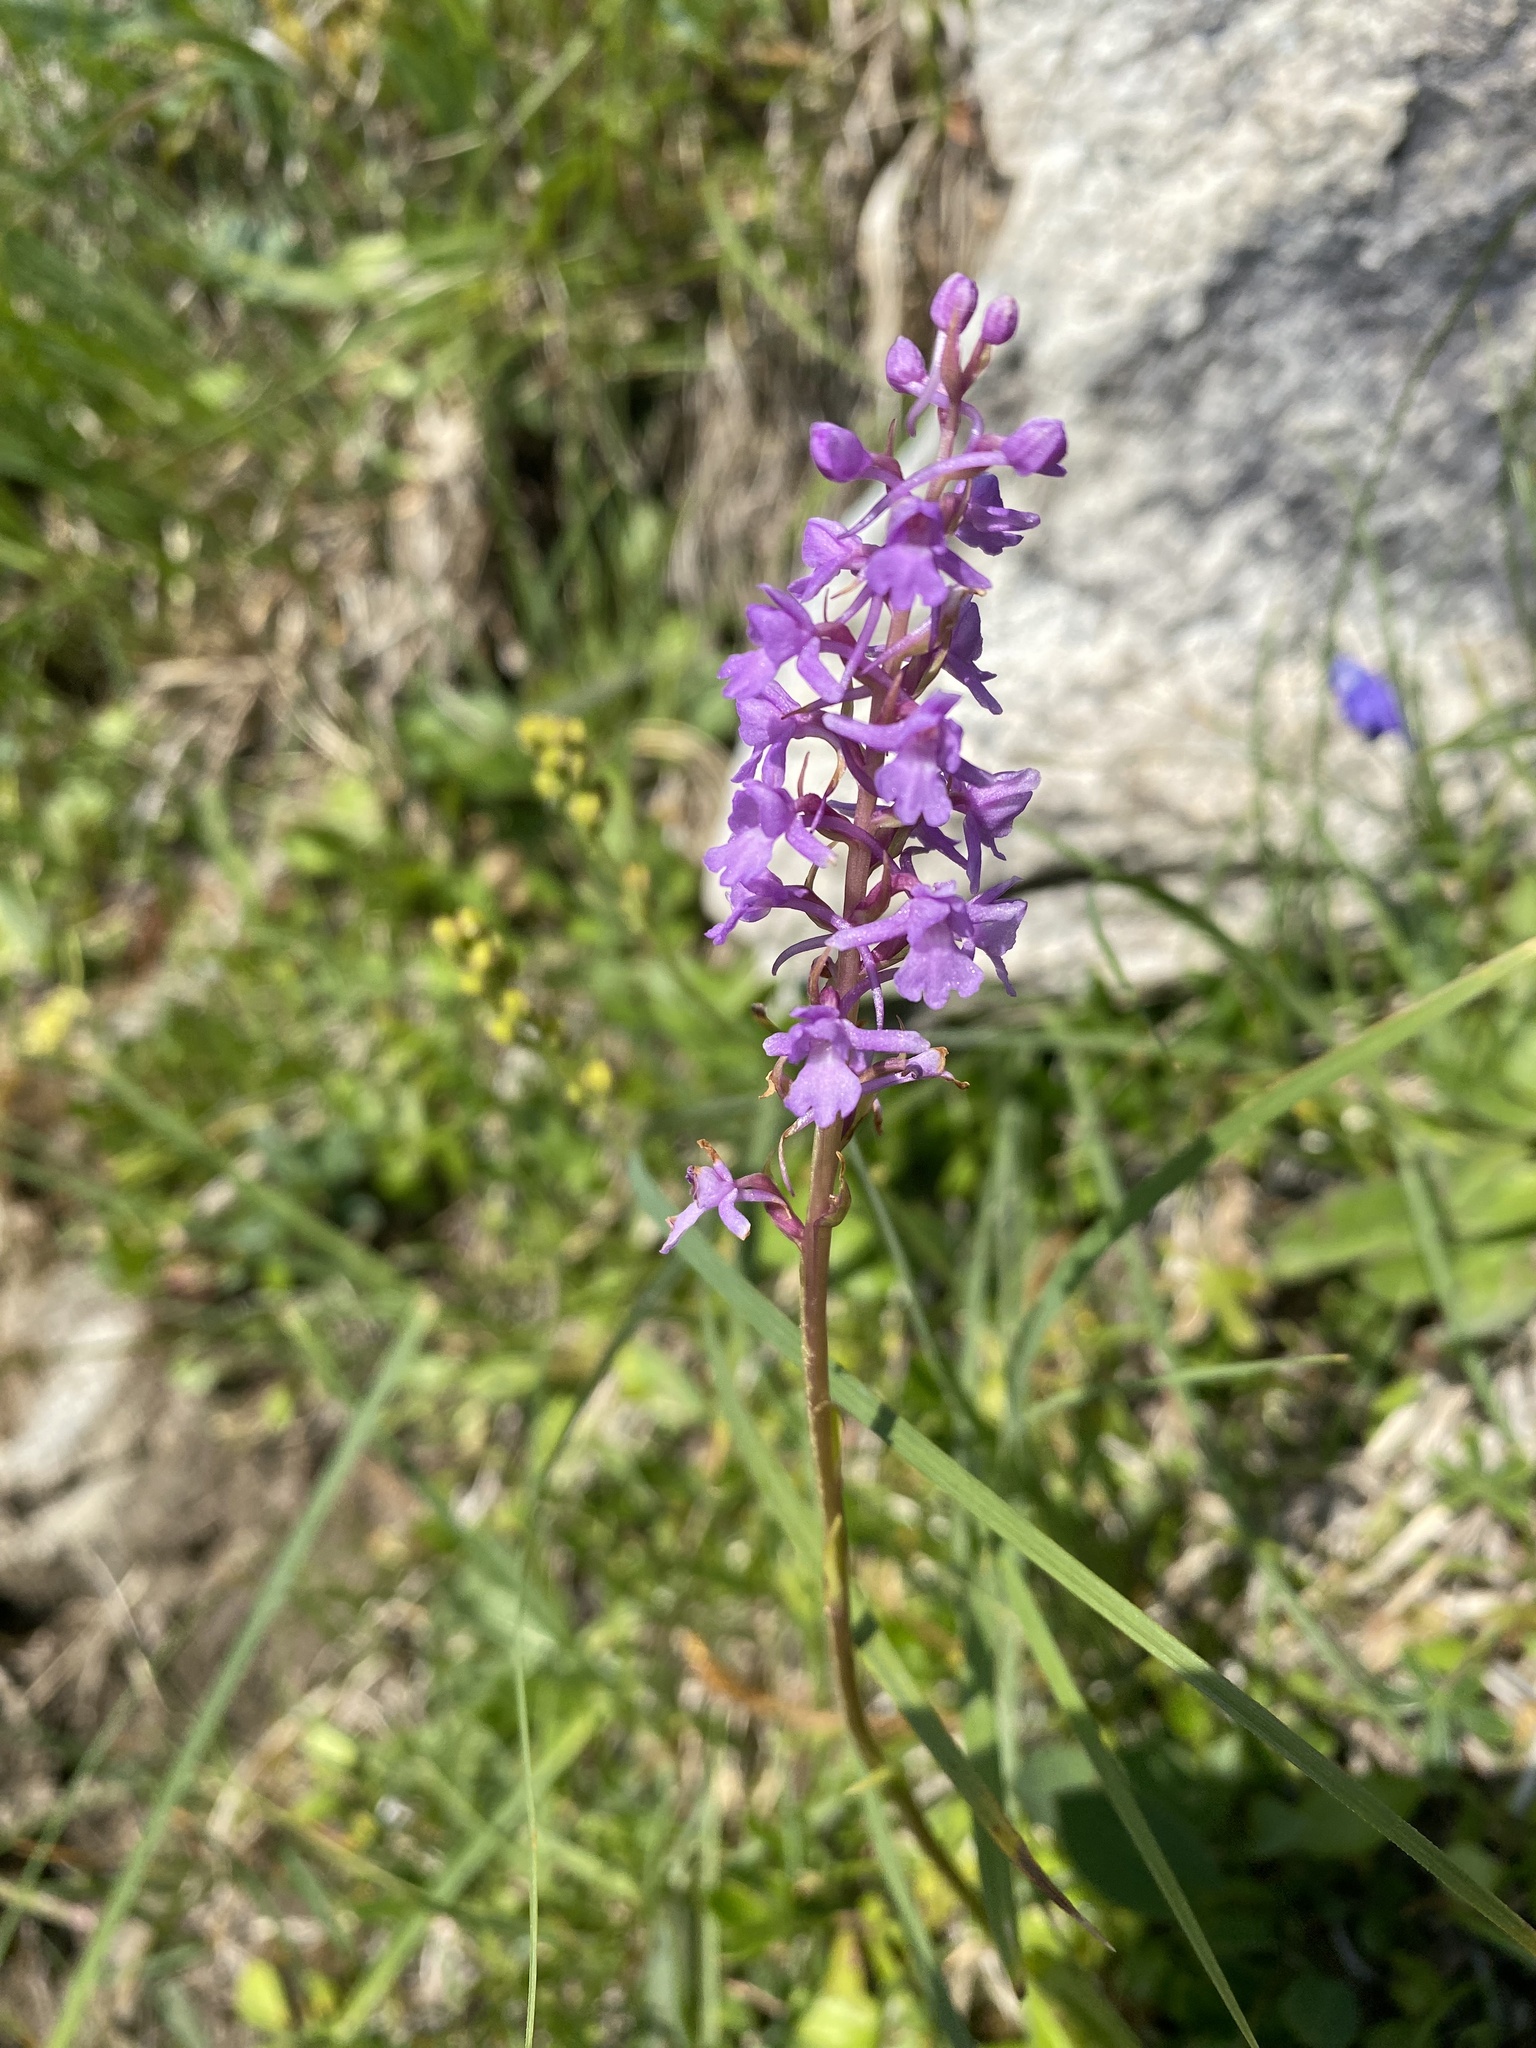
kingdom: Plantae
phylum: Tracheophyta
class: Liliopsida
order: Asparagales
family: Orchidaceae
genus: Gymnadenia
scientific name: Gymnadenia conopsea
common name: Fragrant orchid
